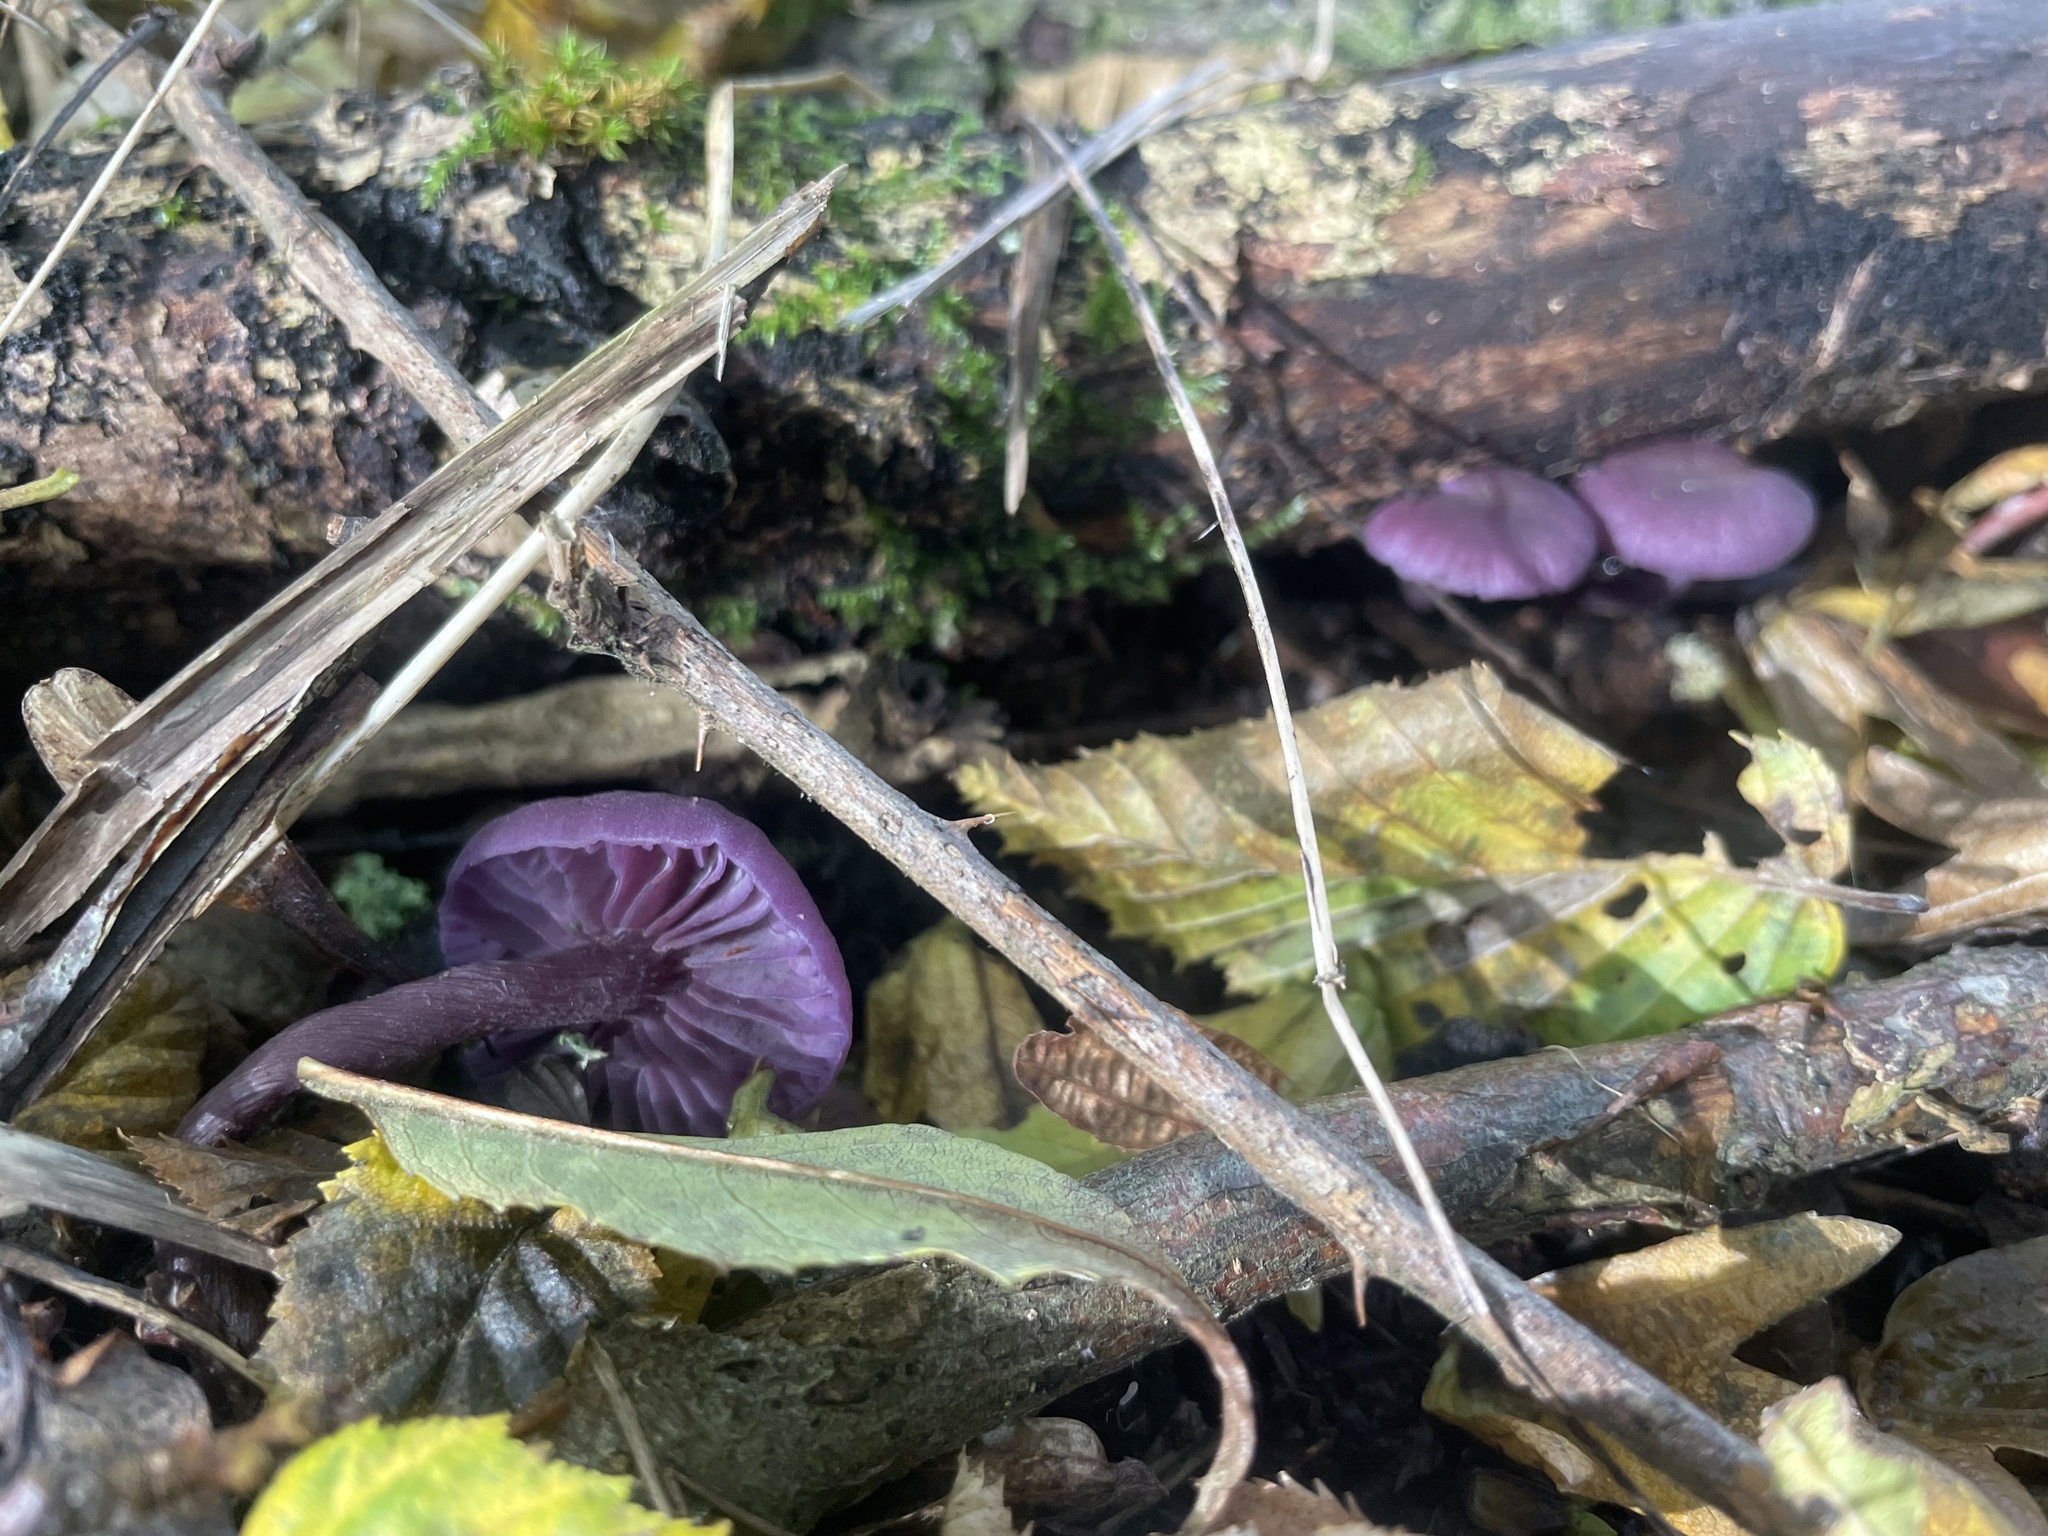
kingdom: Fungi
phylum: Basidiomycota
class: Agaricomycetes
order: Agaricales
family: Hydnangiaceae
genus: Laccaria
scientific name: Laccaria amethystina
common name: Amethyst deceiver
